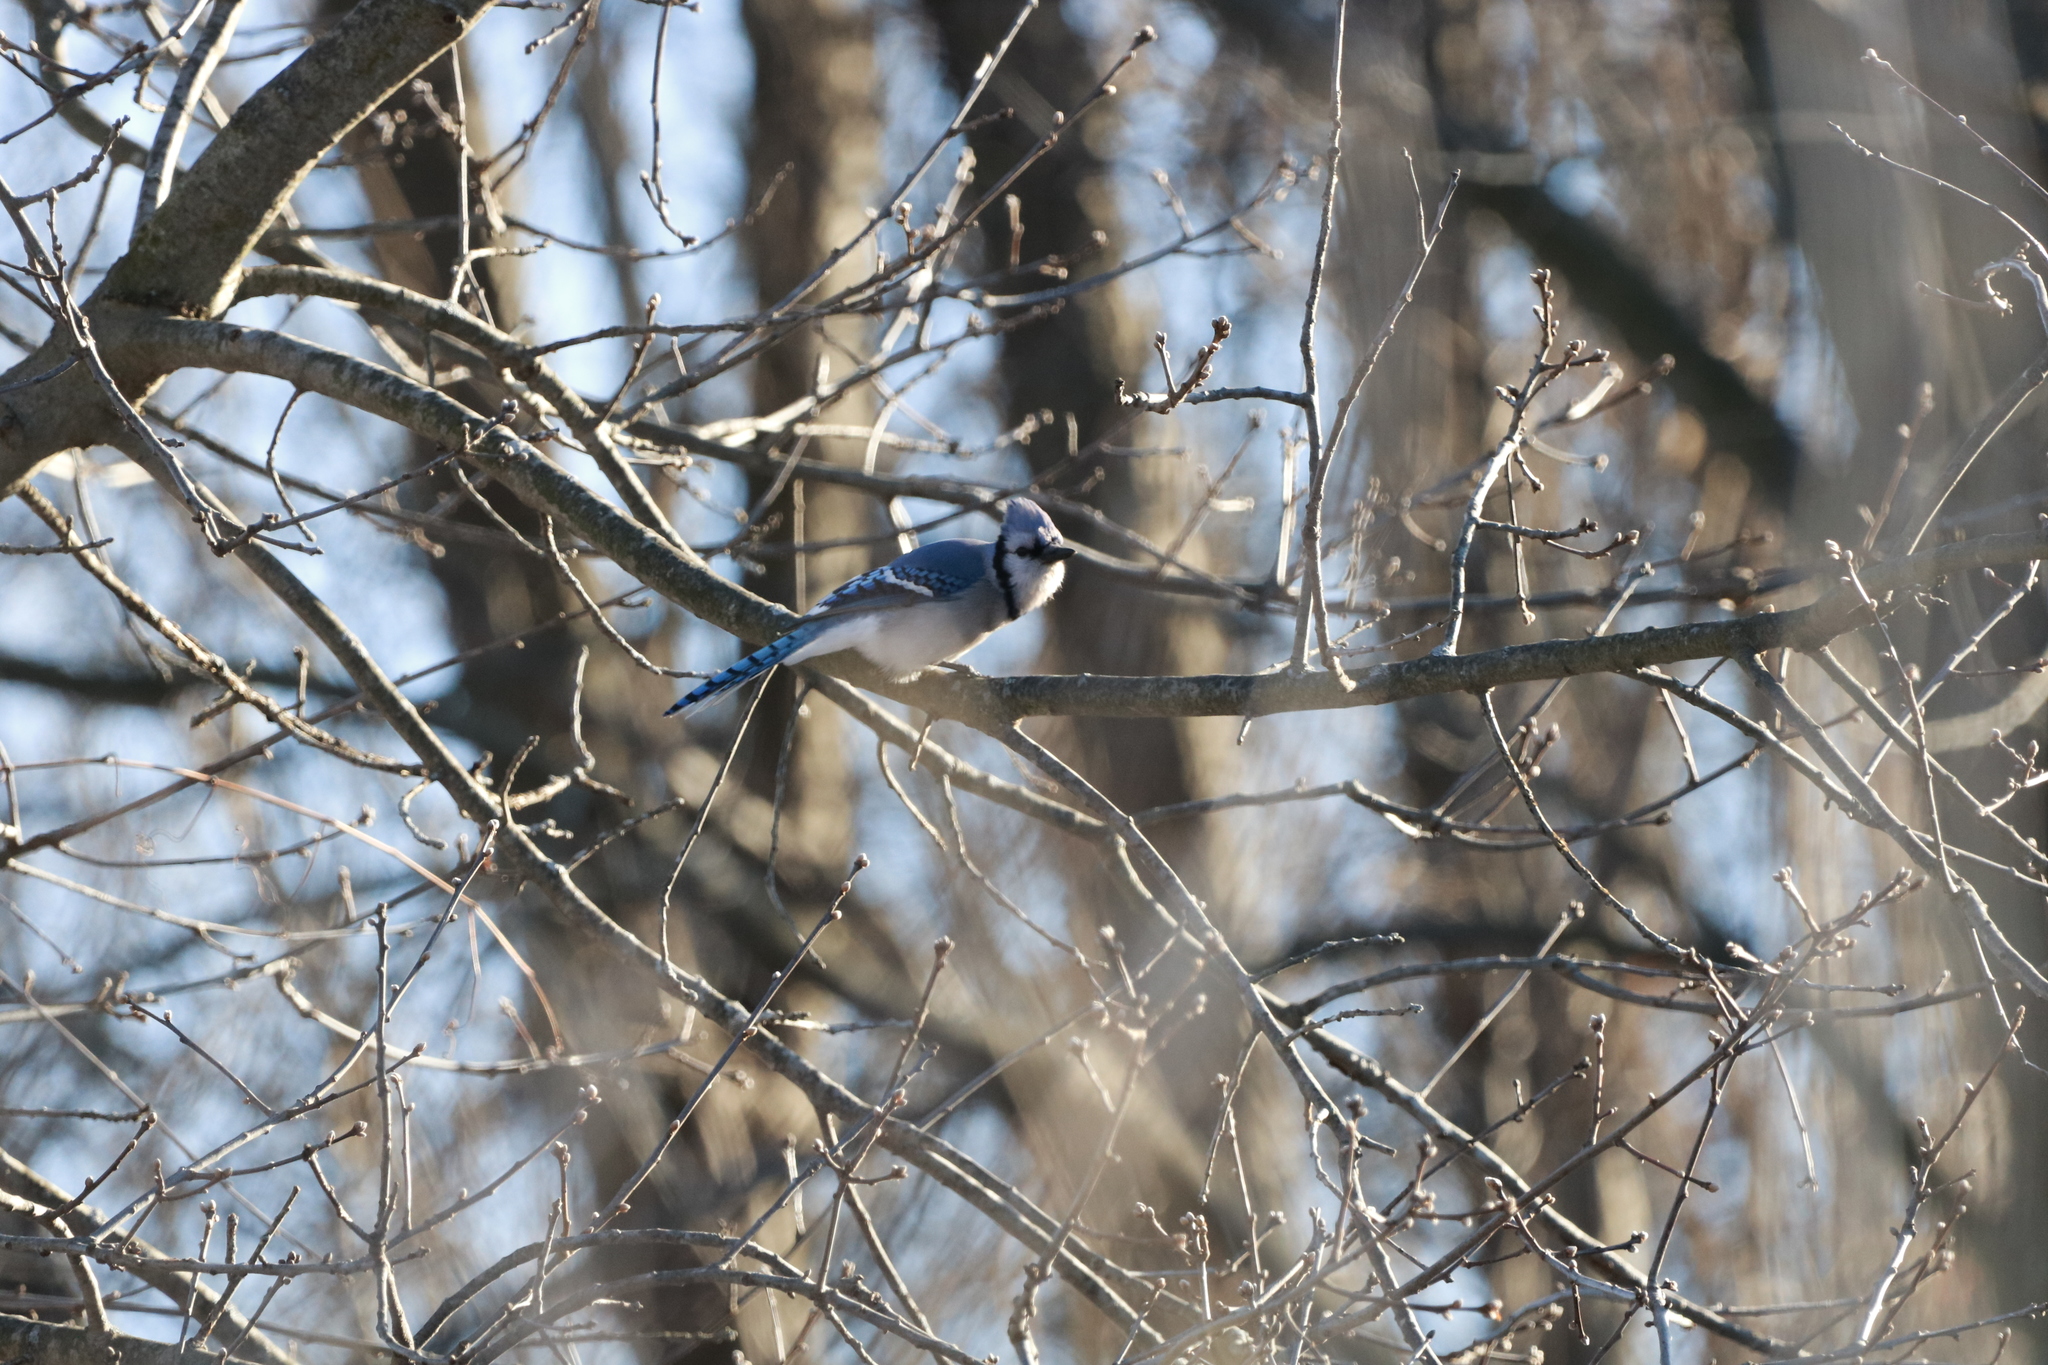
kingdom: Animalia
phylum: Chordata
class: Aves
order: Passeriformes
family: Corvidae
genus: Cyanocitta
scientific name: Cyanocitta cristata
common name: Blue jay
